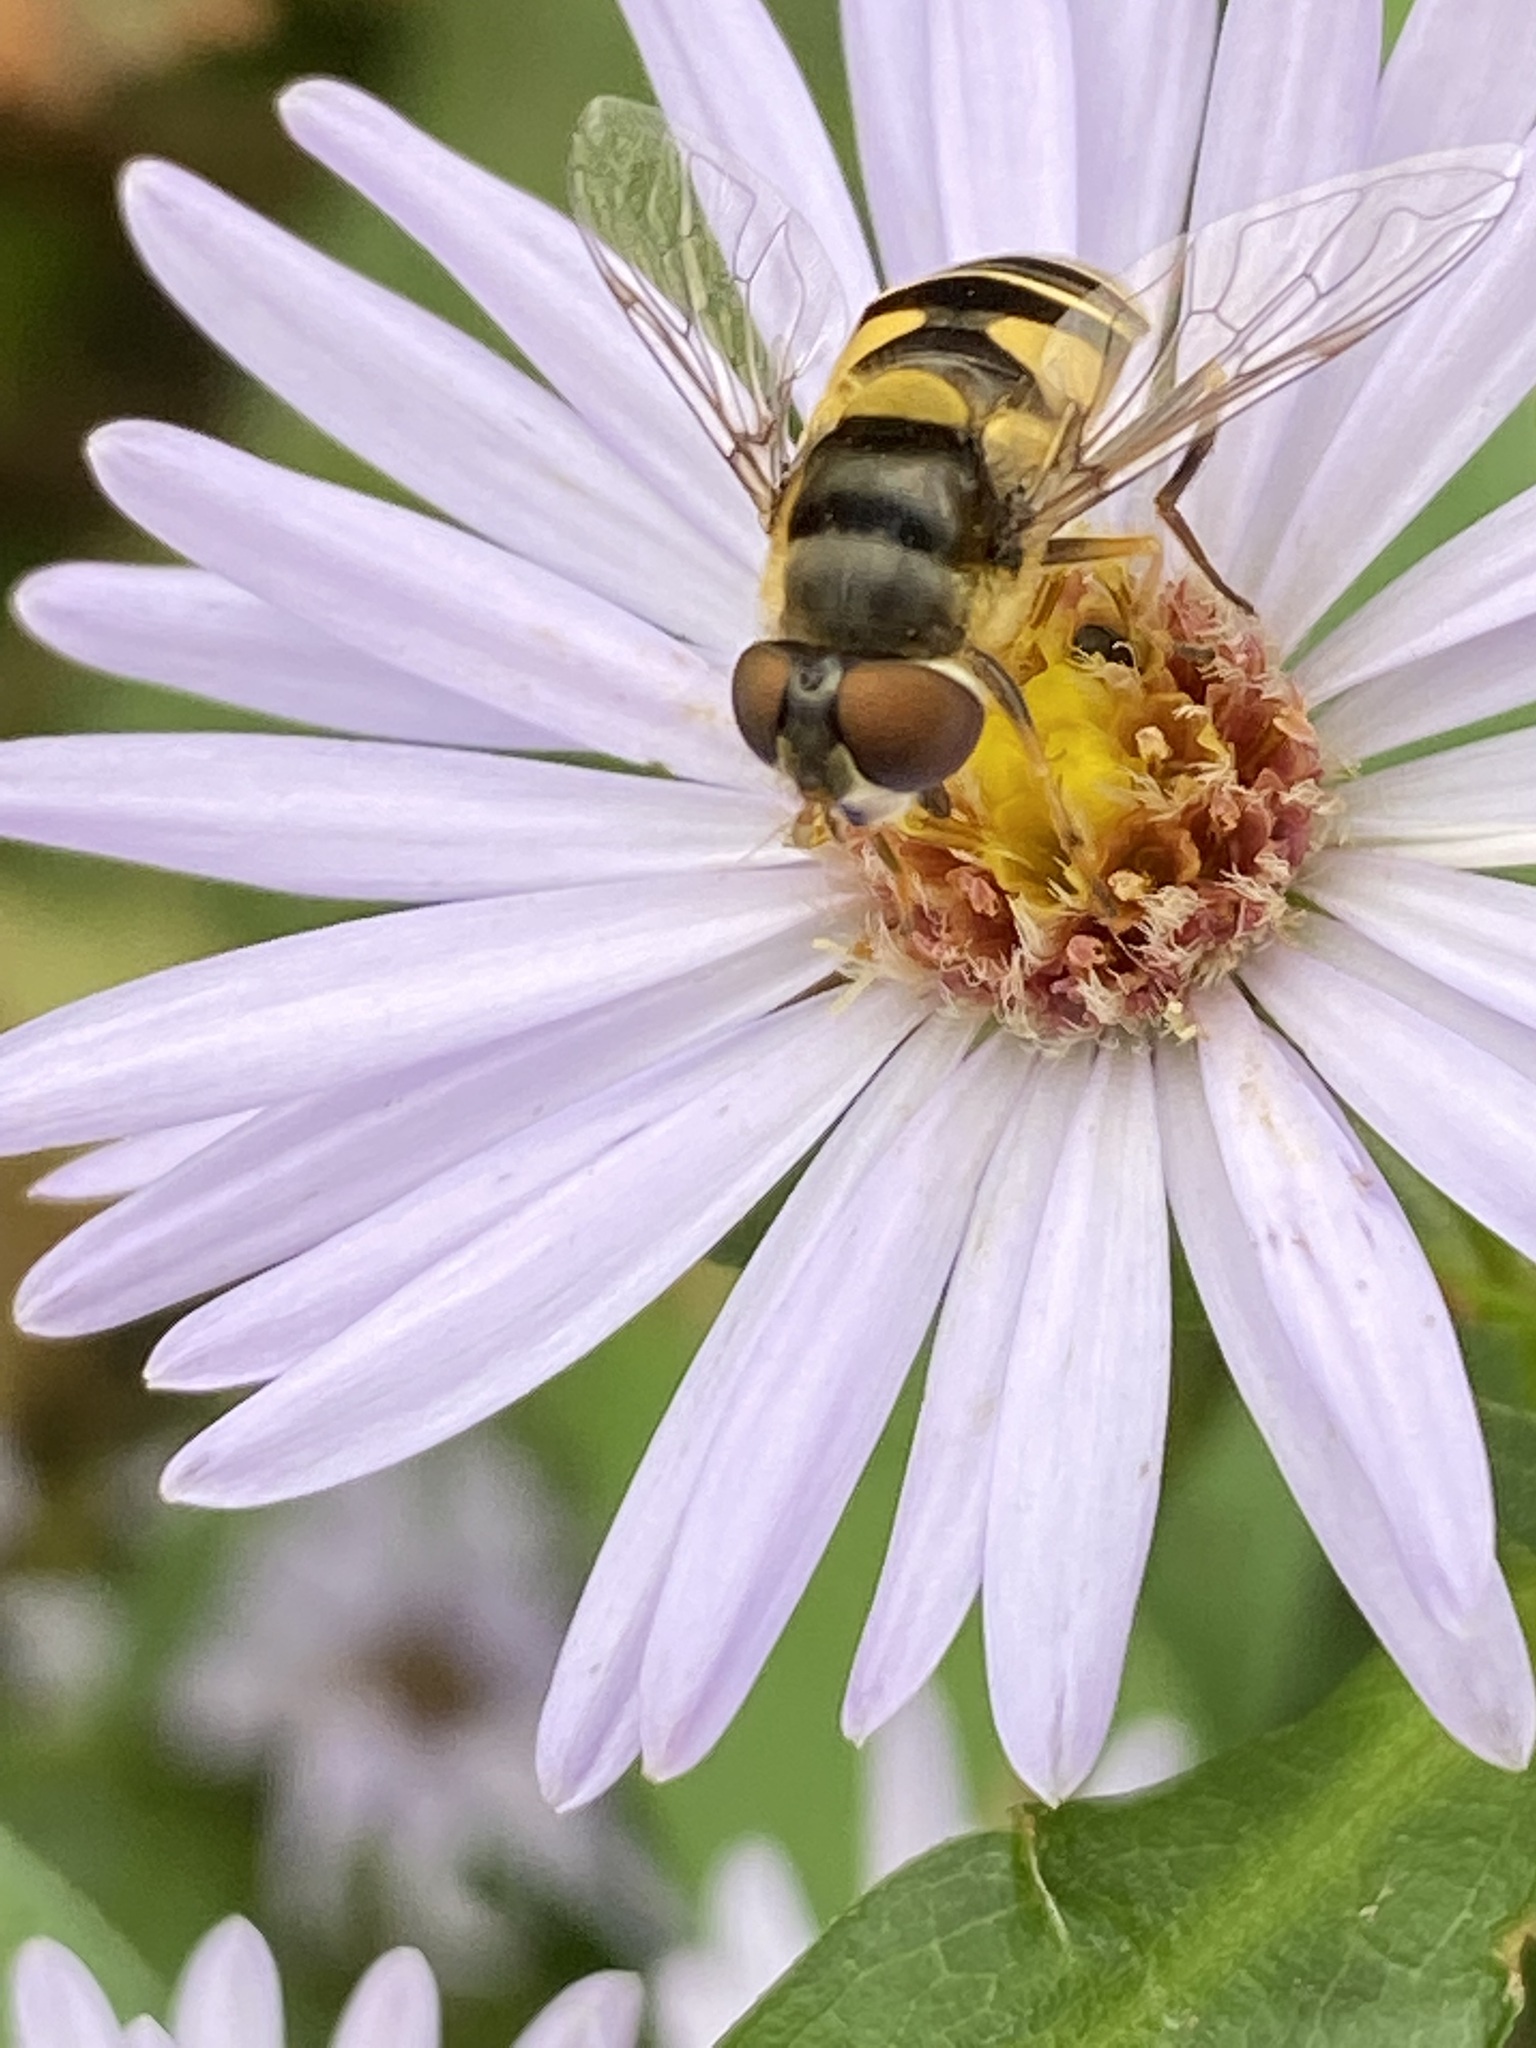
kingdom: Animalia
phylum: Arthropoda
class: Insecta
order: Diptera
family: Syrphidae
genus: Eristalis
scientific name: Eristalis transversa
